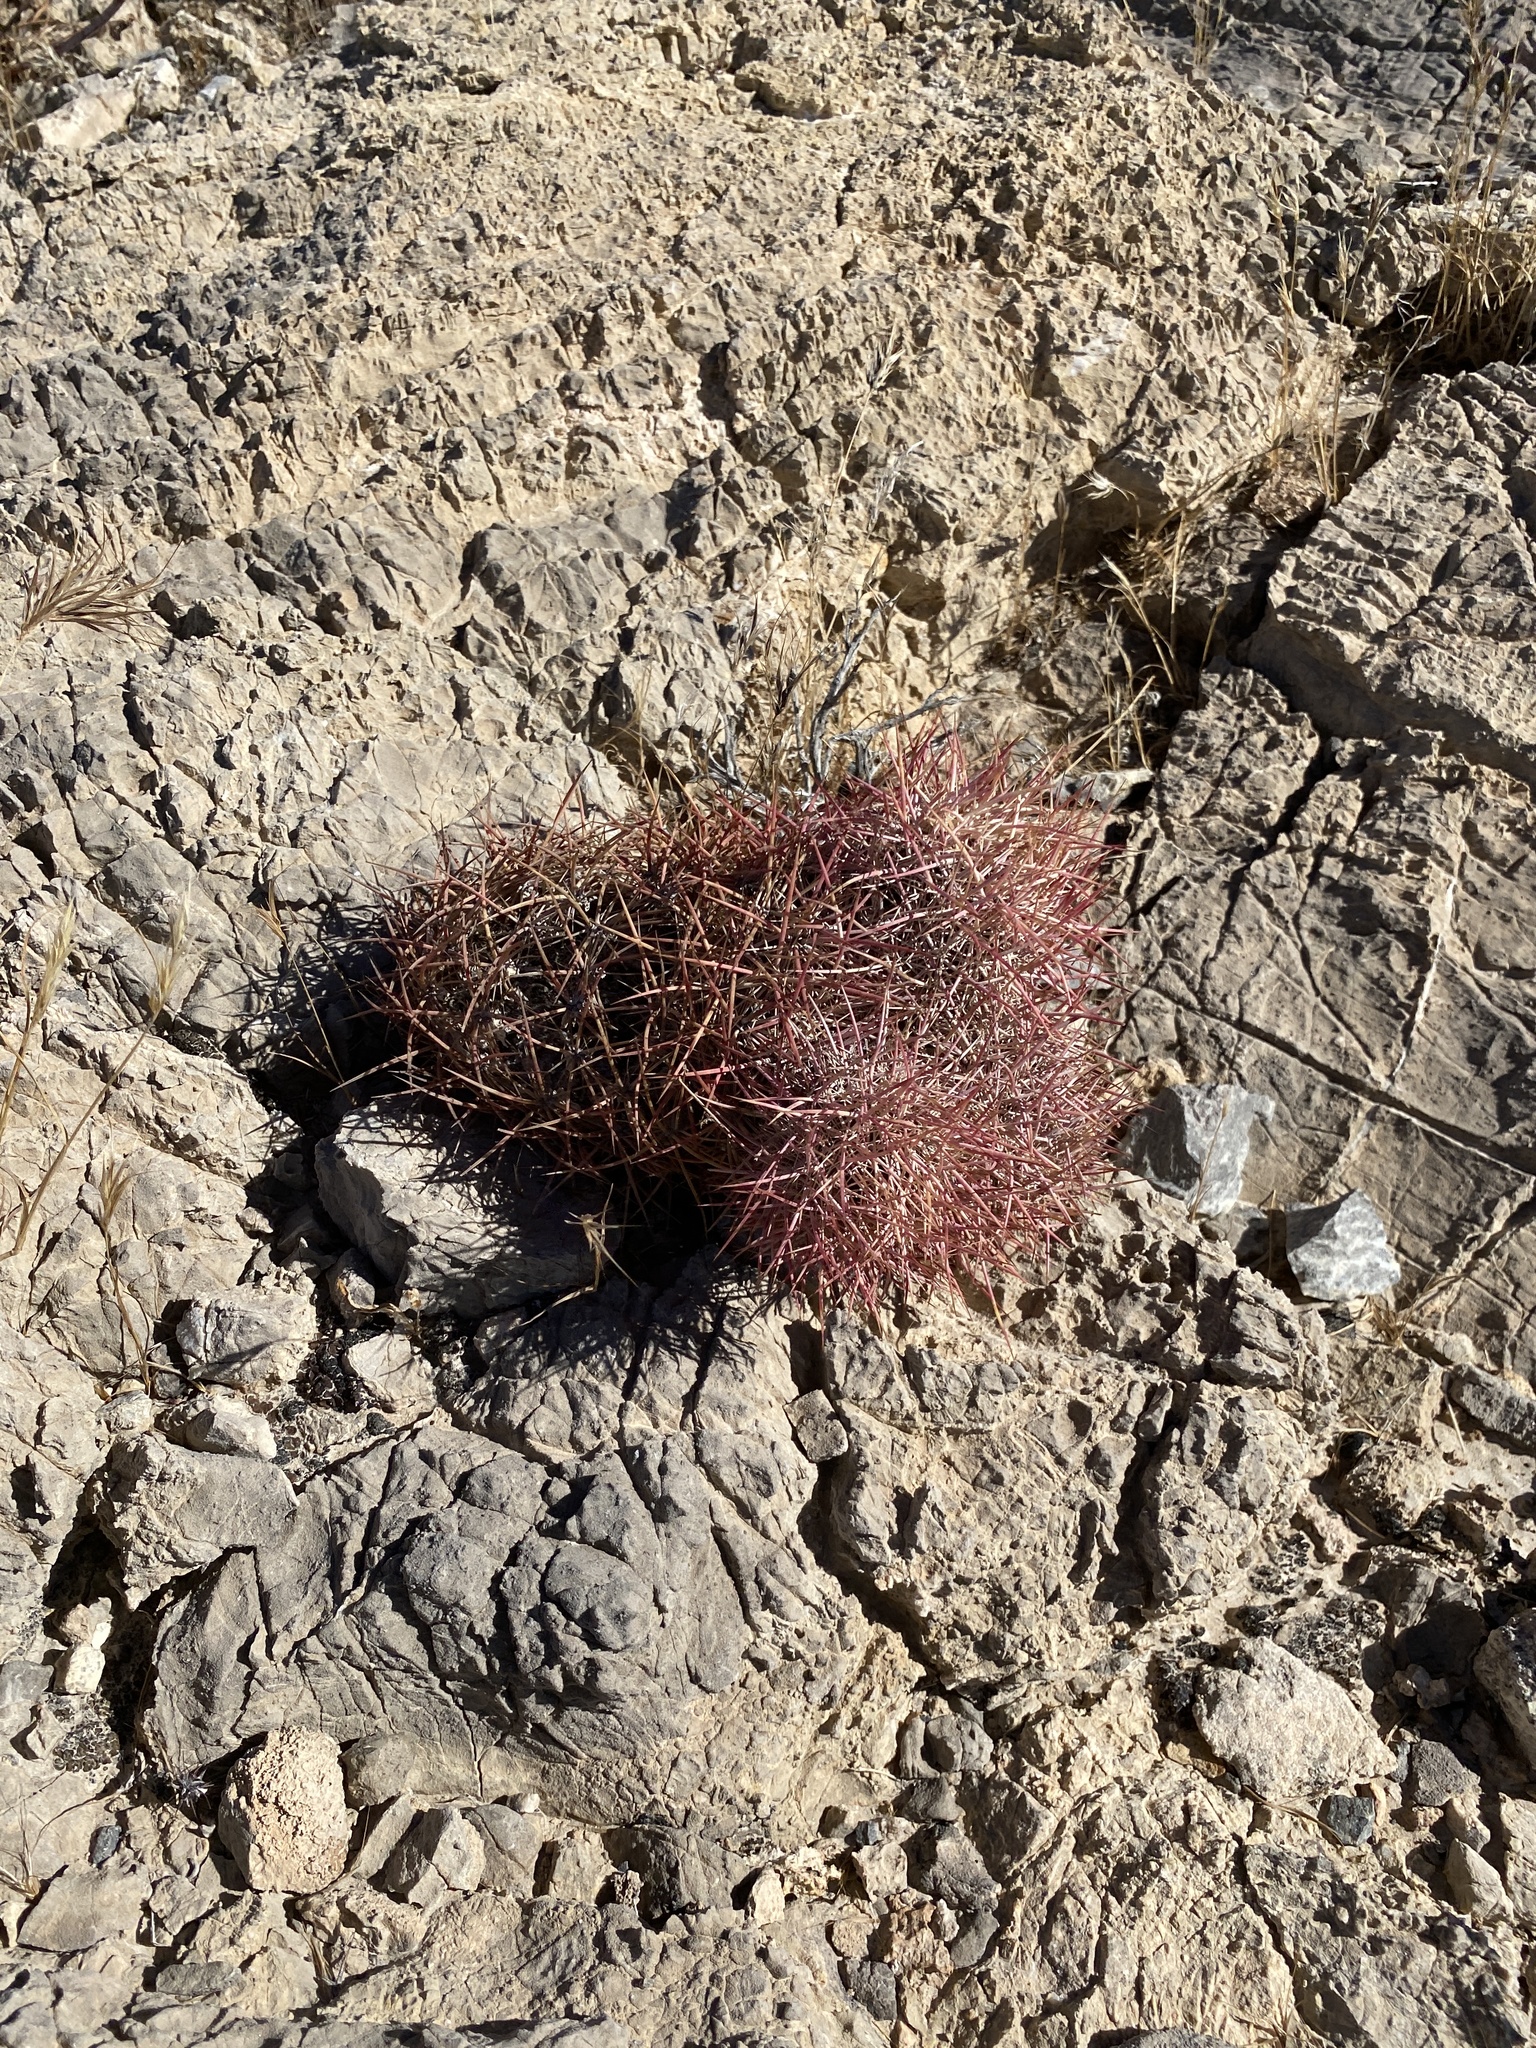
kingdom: Plantae
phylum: Tracheophyta
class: Magnoliopsida
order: Caryophyllales
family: Cactaceae
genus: Sclerocactus
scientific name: Sclerocactus johnsonii
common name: Eight-spine fishhook cactus
